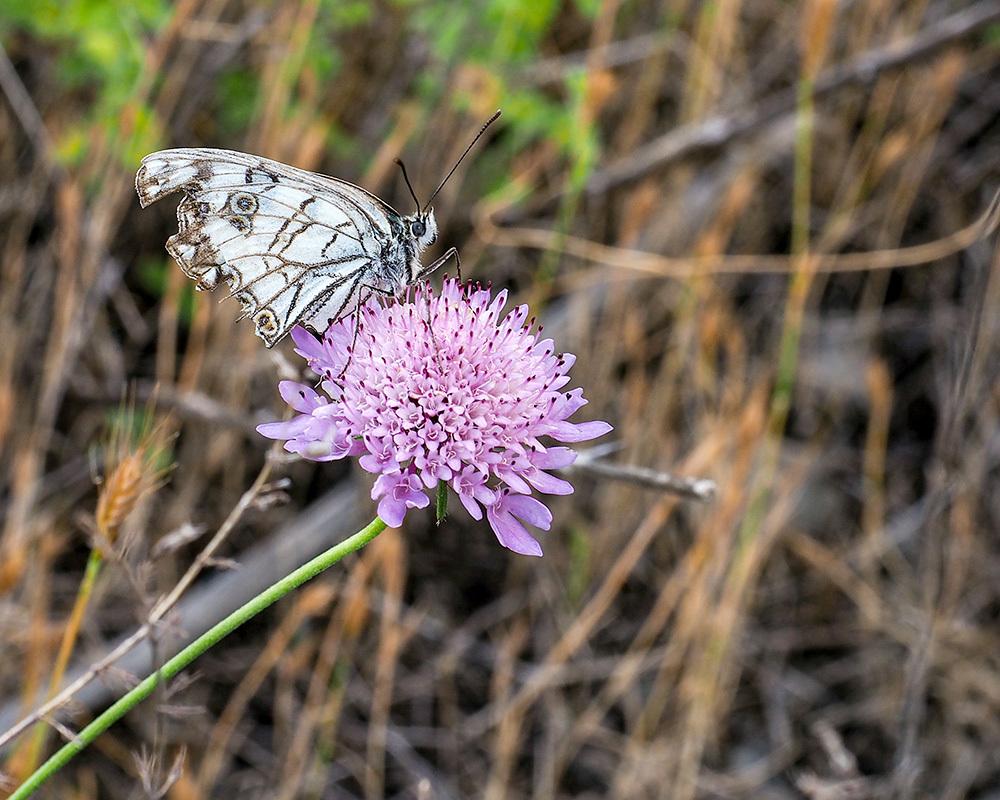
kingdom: Animalia
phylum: Arthropoda
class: Insecta
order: Lepidoptera
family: Nymphalidae
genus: Melanargia
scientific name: Melanargia arge
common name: Italian marbled white
